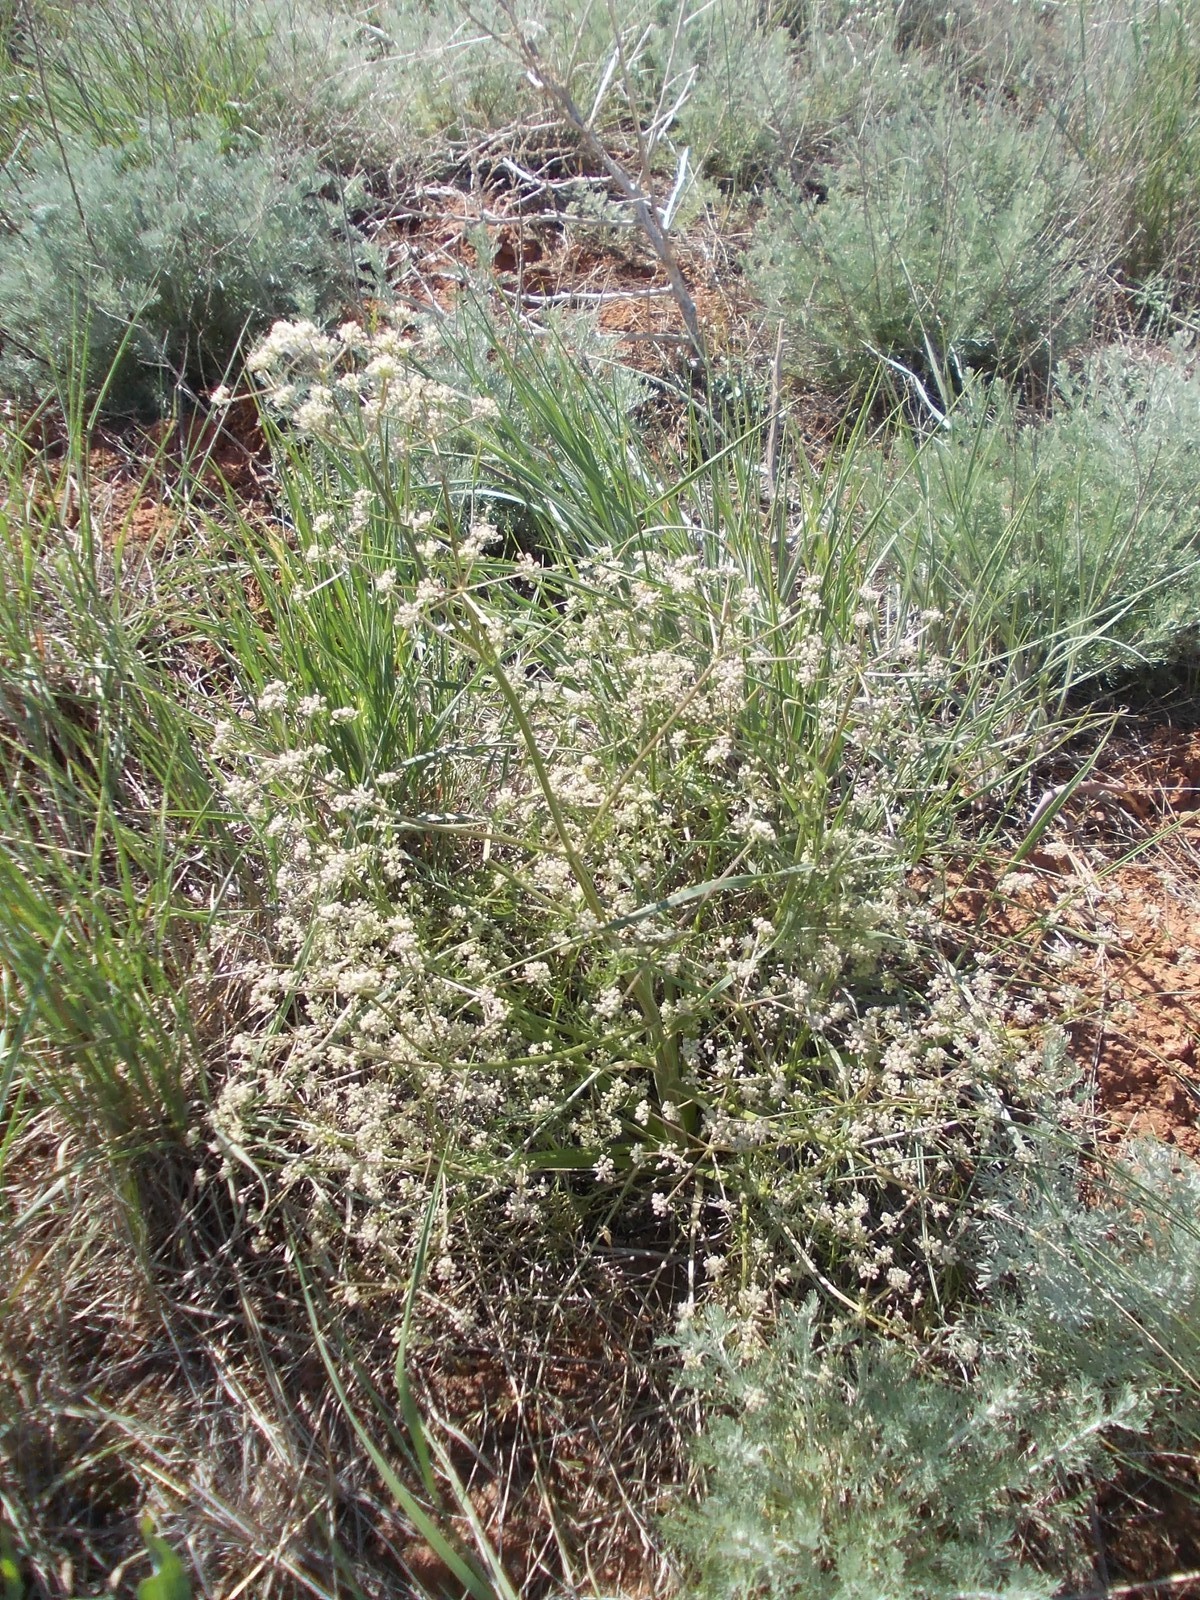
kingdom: Plantae
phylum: Tracheophyta
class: Magnoliopsida
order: Apiales
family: Apiaceae
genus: Trinia
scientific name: Trinia hispida
